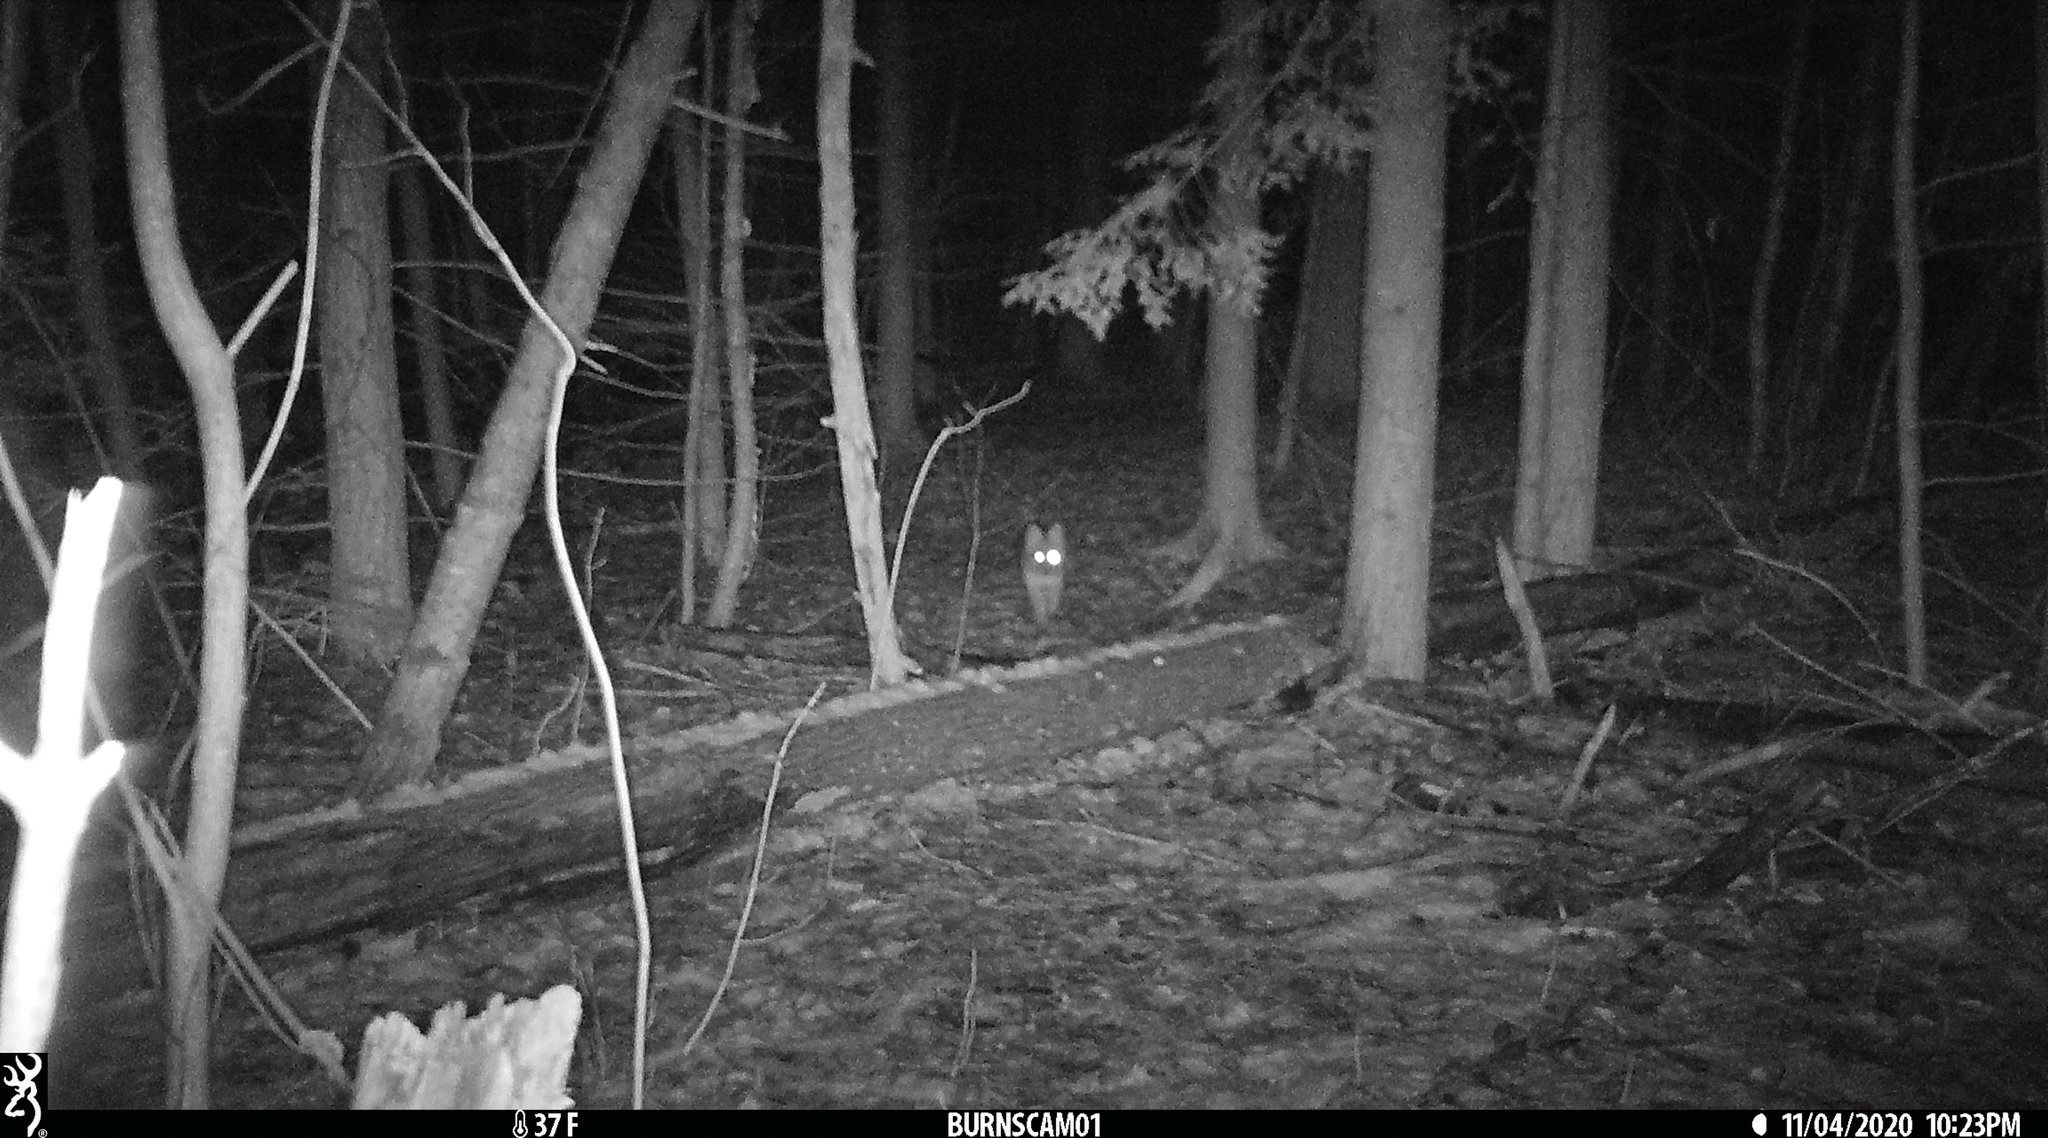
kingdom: Animalia
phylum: Chordata
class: Mammalia
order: Carnivora
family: Canidae
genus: Canis
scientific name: Canis latrans
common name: Coyote
